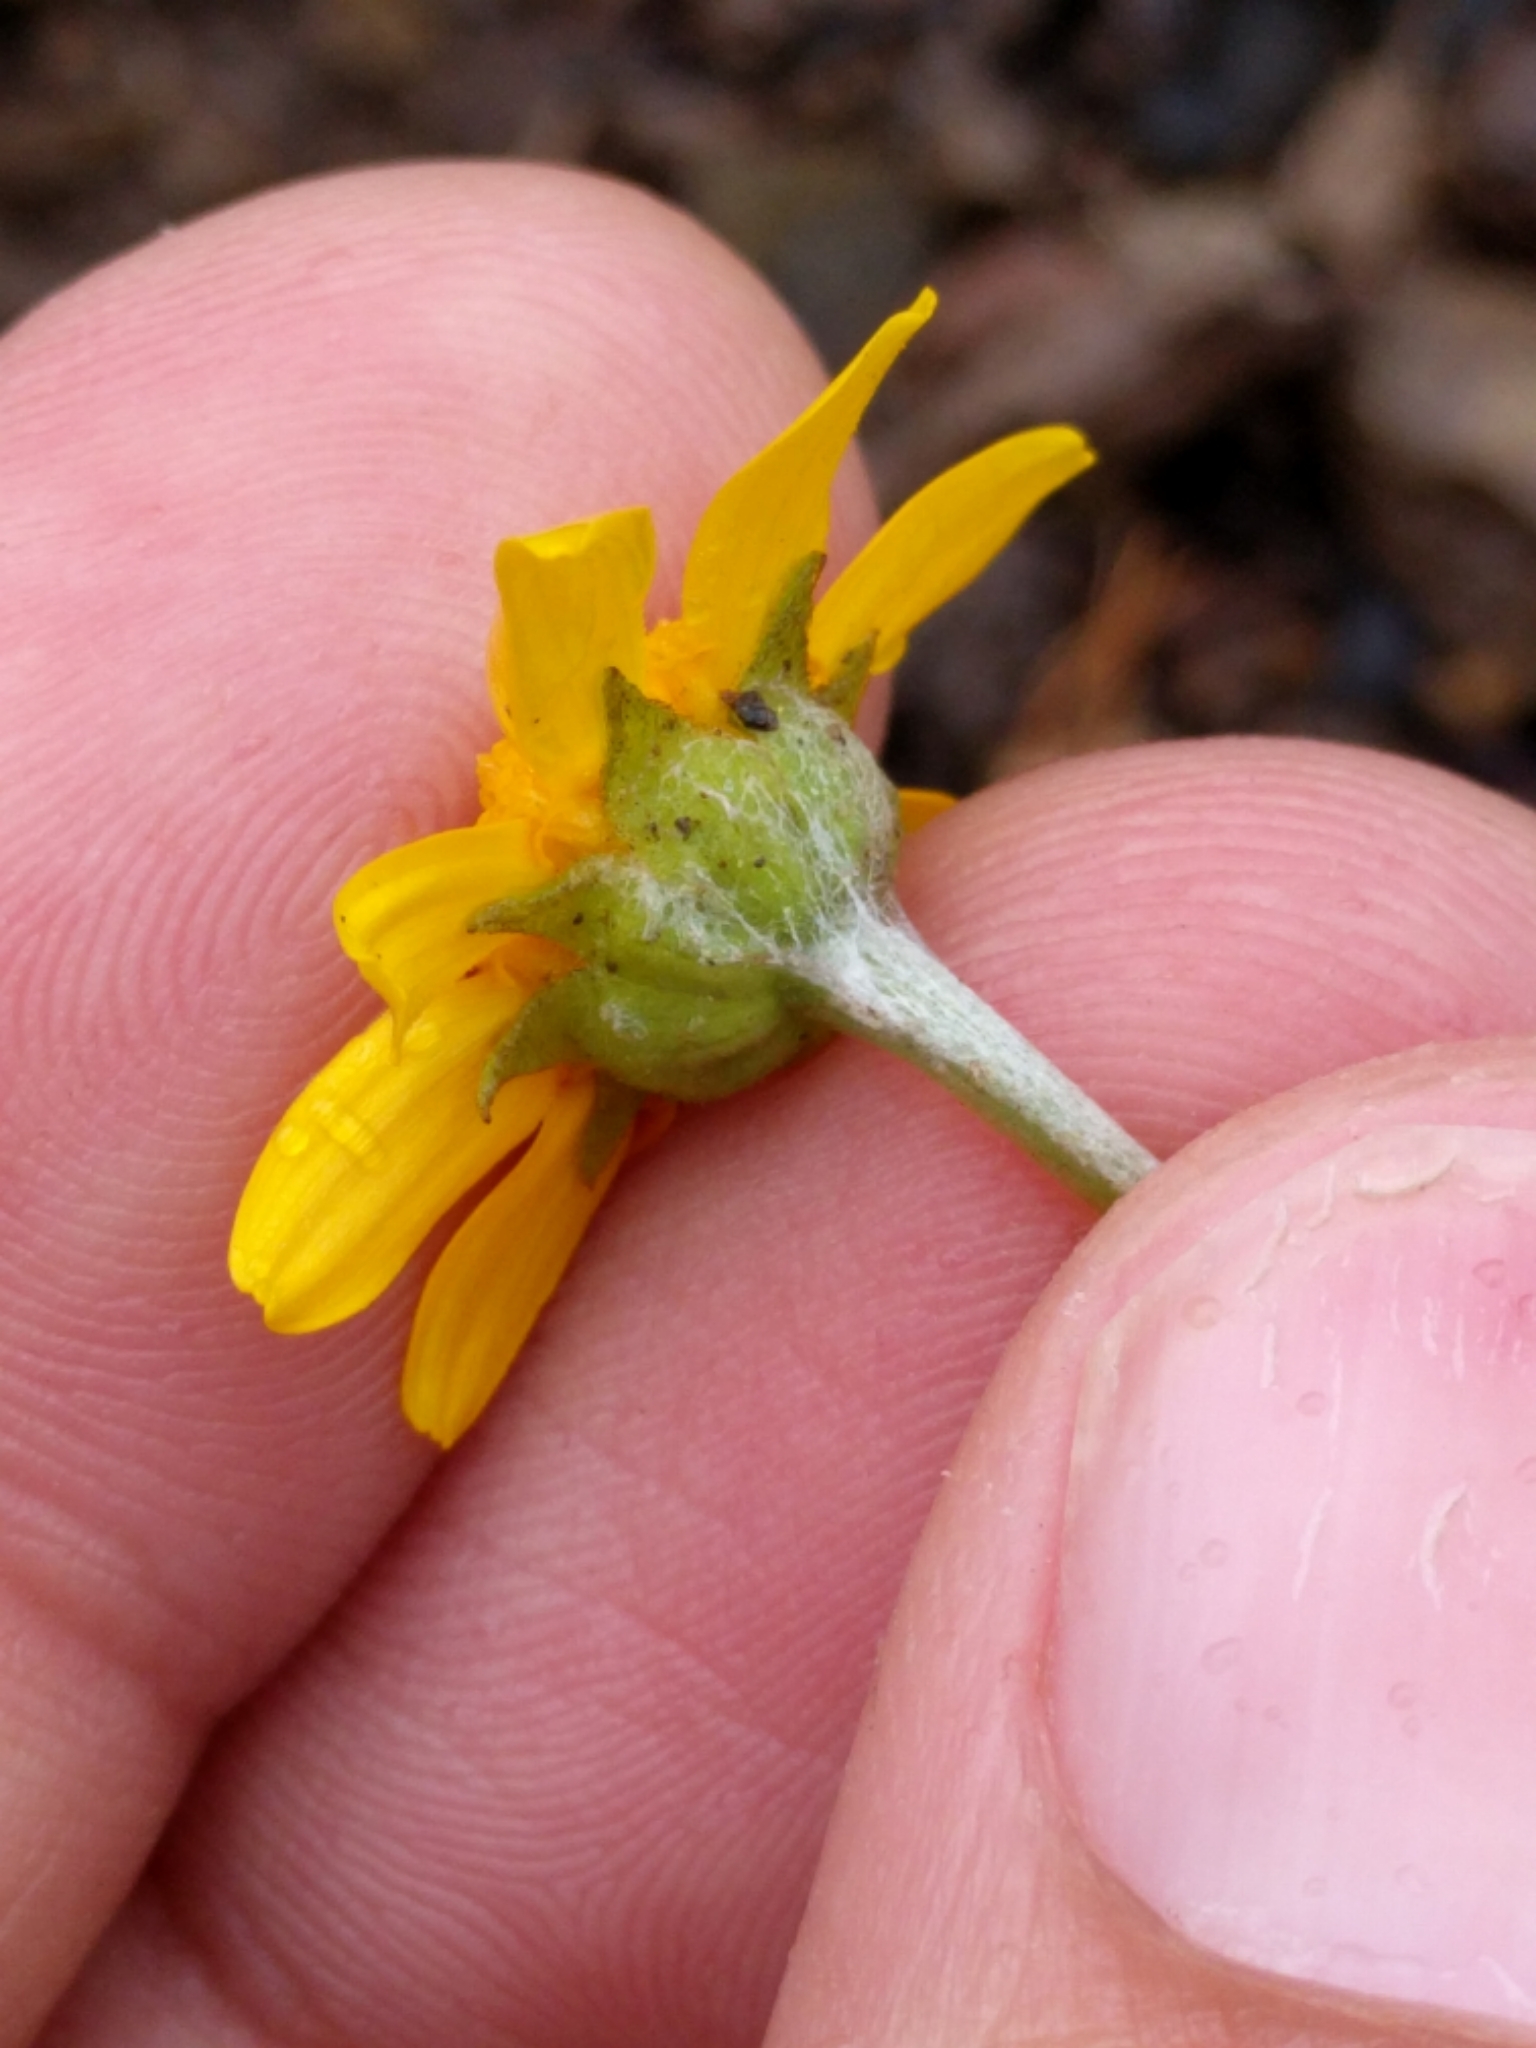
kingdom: Plantae
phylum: Tracheophyta
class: Magnoliopsida
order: Asterales
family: Asteraceae
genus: Monolopia
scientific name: Monolopia gracilens
